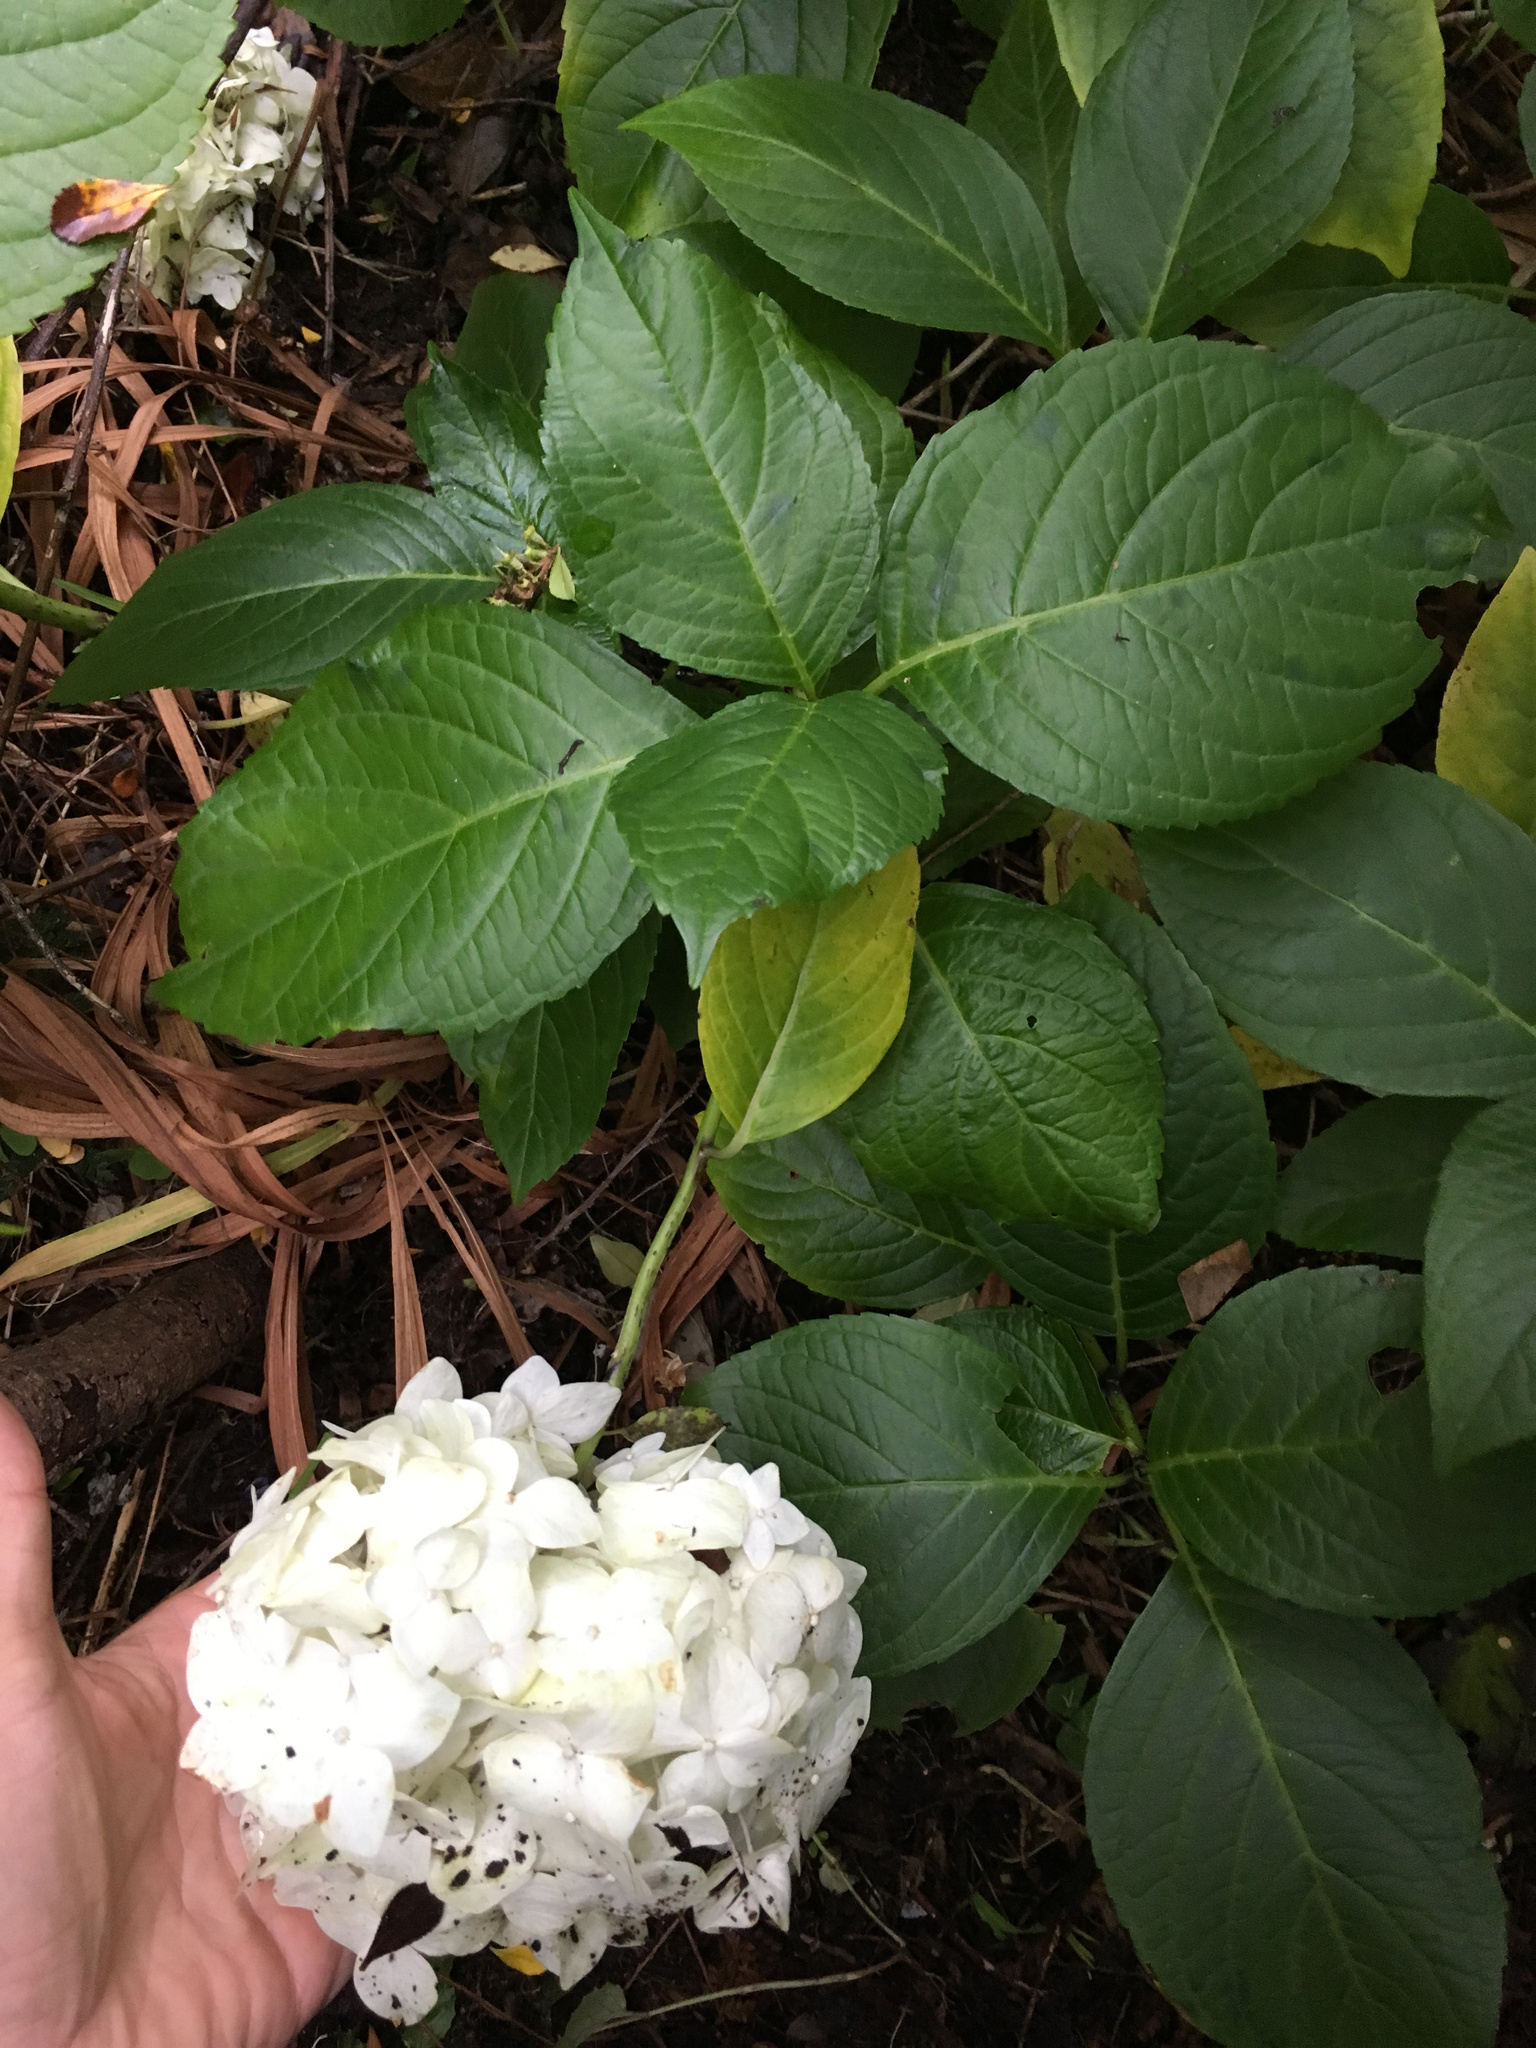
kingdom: Plantae
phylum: Tracheophyta
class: Magnoliopsida
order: Cornales
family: Hydrangeaceae
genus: Hydrangea
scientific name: Hydrangea macrophylla
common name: Hydrangea
